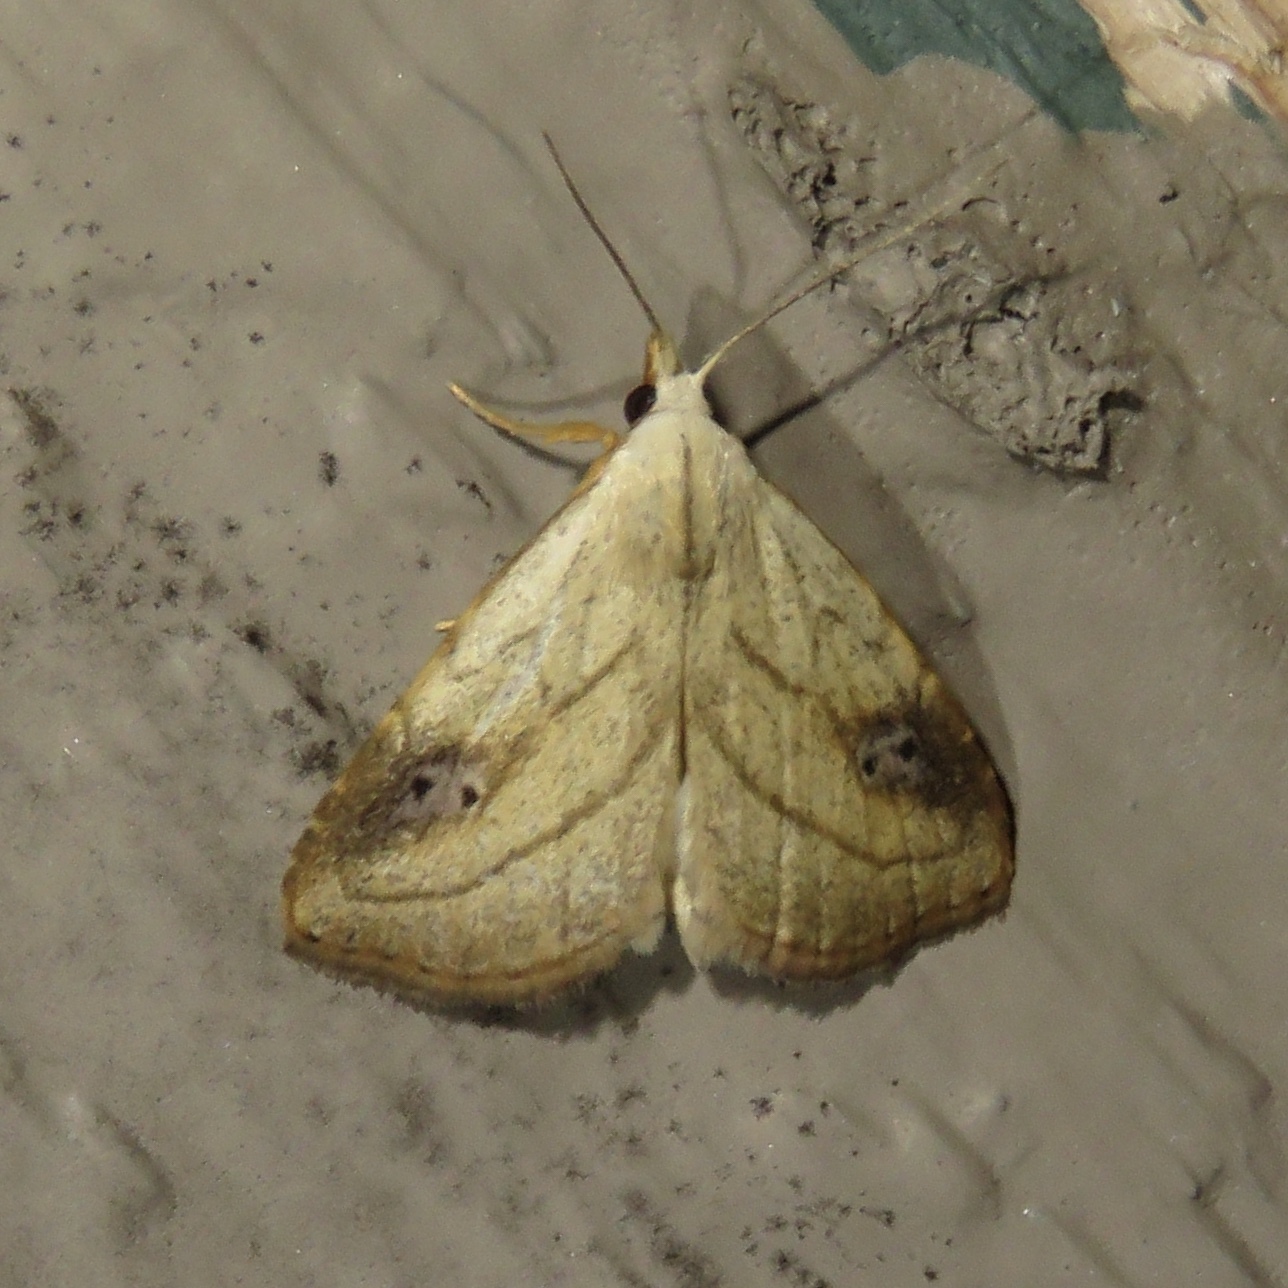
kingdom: Animalia
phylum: Arthropoda
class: Insecta
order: Lepidoptera
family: Erebidae
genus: Rivula
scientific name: Rivula propinqualis
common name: Spotted grass moth
